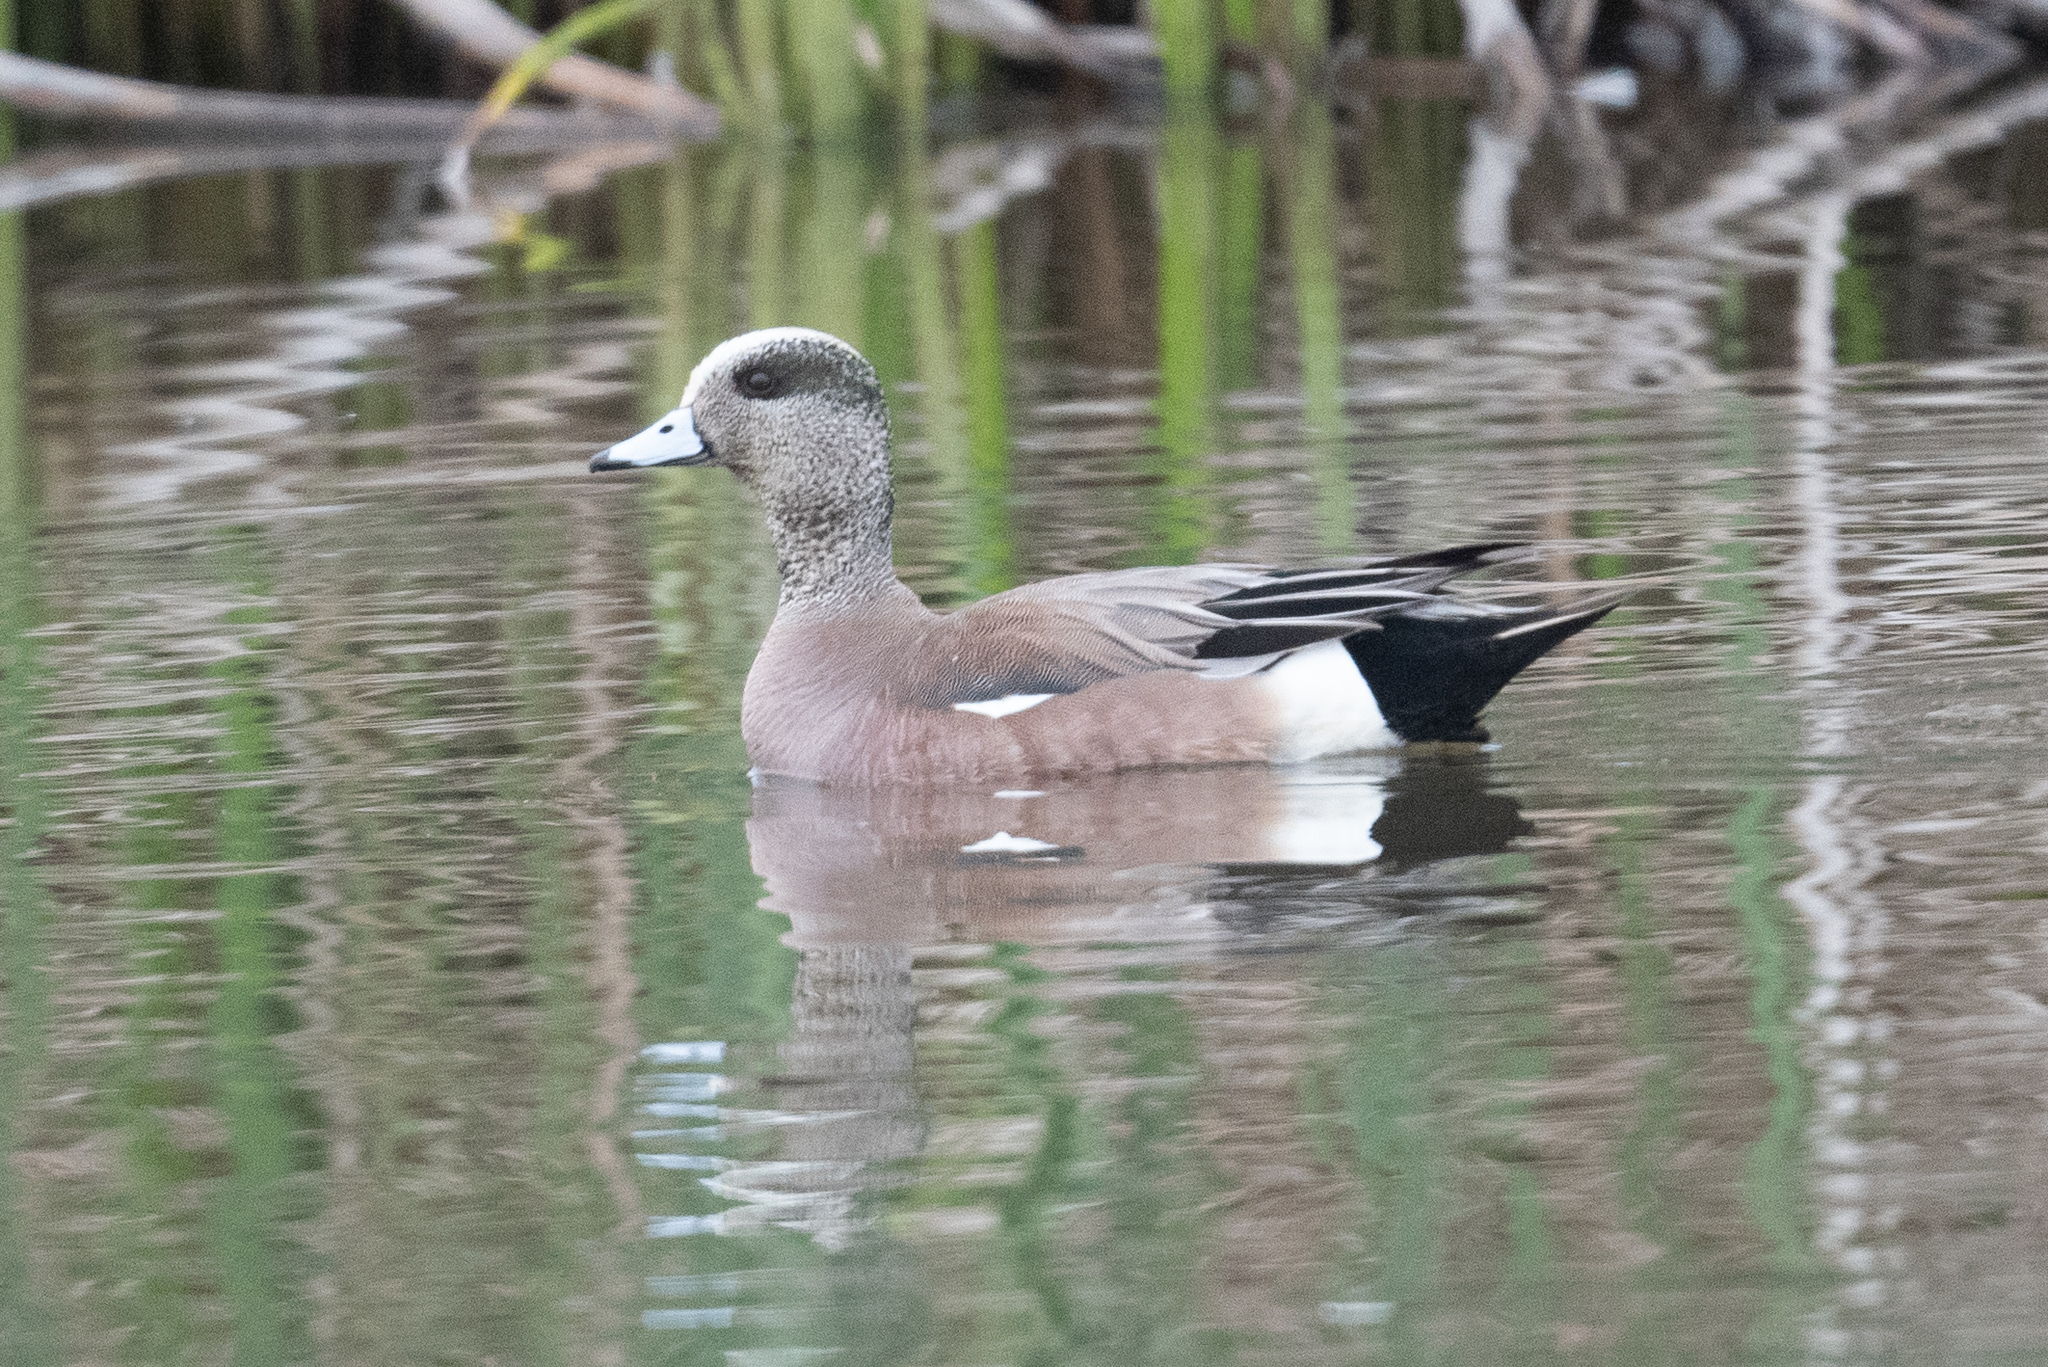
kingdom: Animalia
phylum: Chordata
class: Aves
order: Anseriformes
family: Anatidae
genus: Mareca
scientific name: Mareca americana
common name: American wigeon
